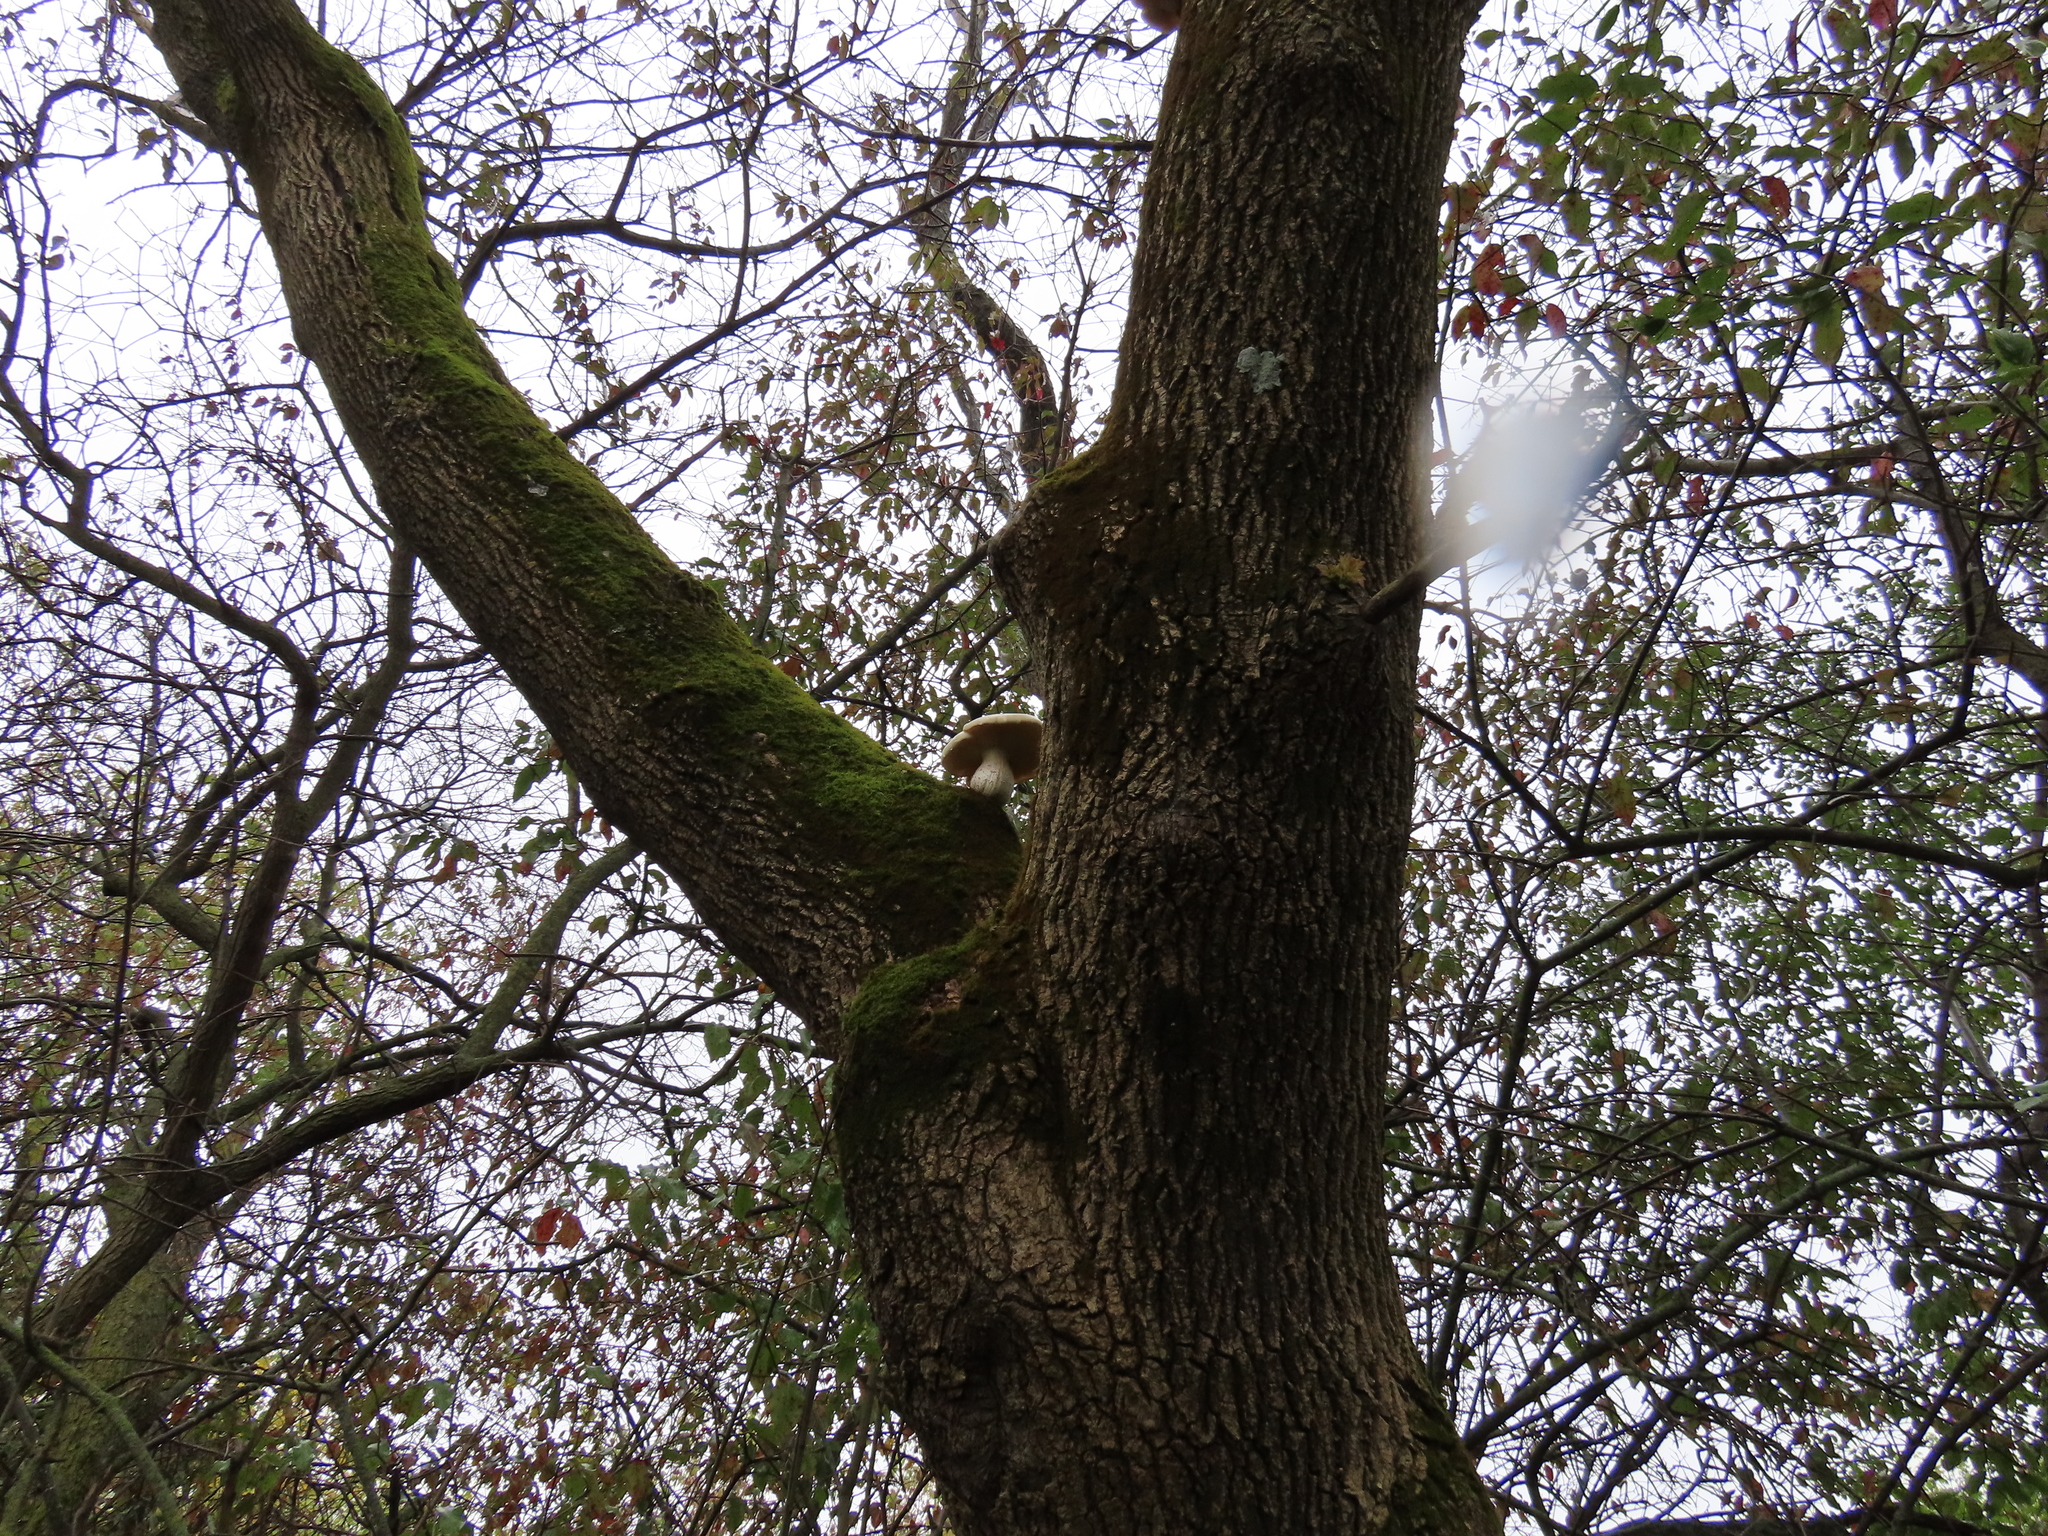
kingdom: Fungi
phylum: Basidiomycota
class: Agaricomycetes
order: Agaricales
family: Lyophyllaceae
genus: Hypsizygus
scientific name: Hypsizygus ulmarius
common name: Elm leech
